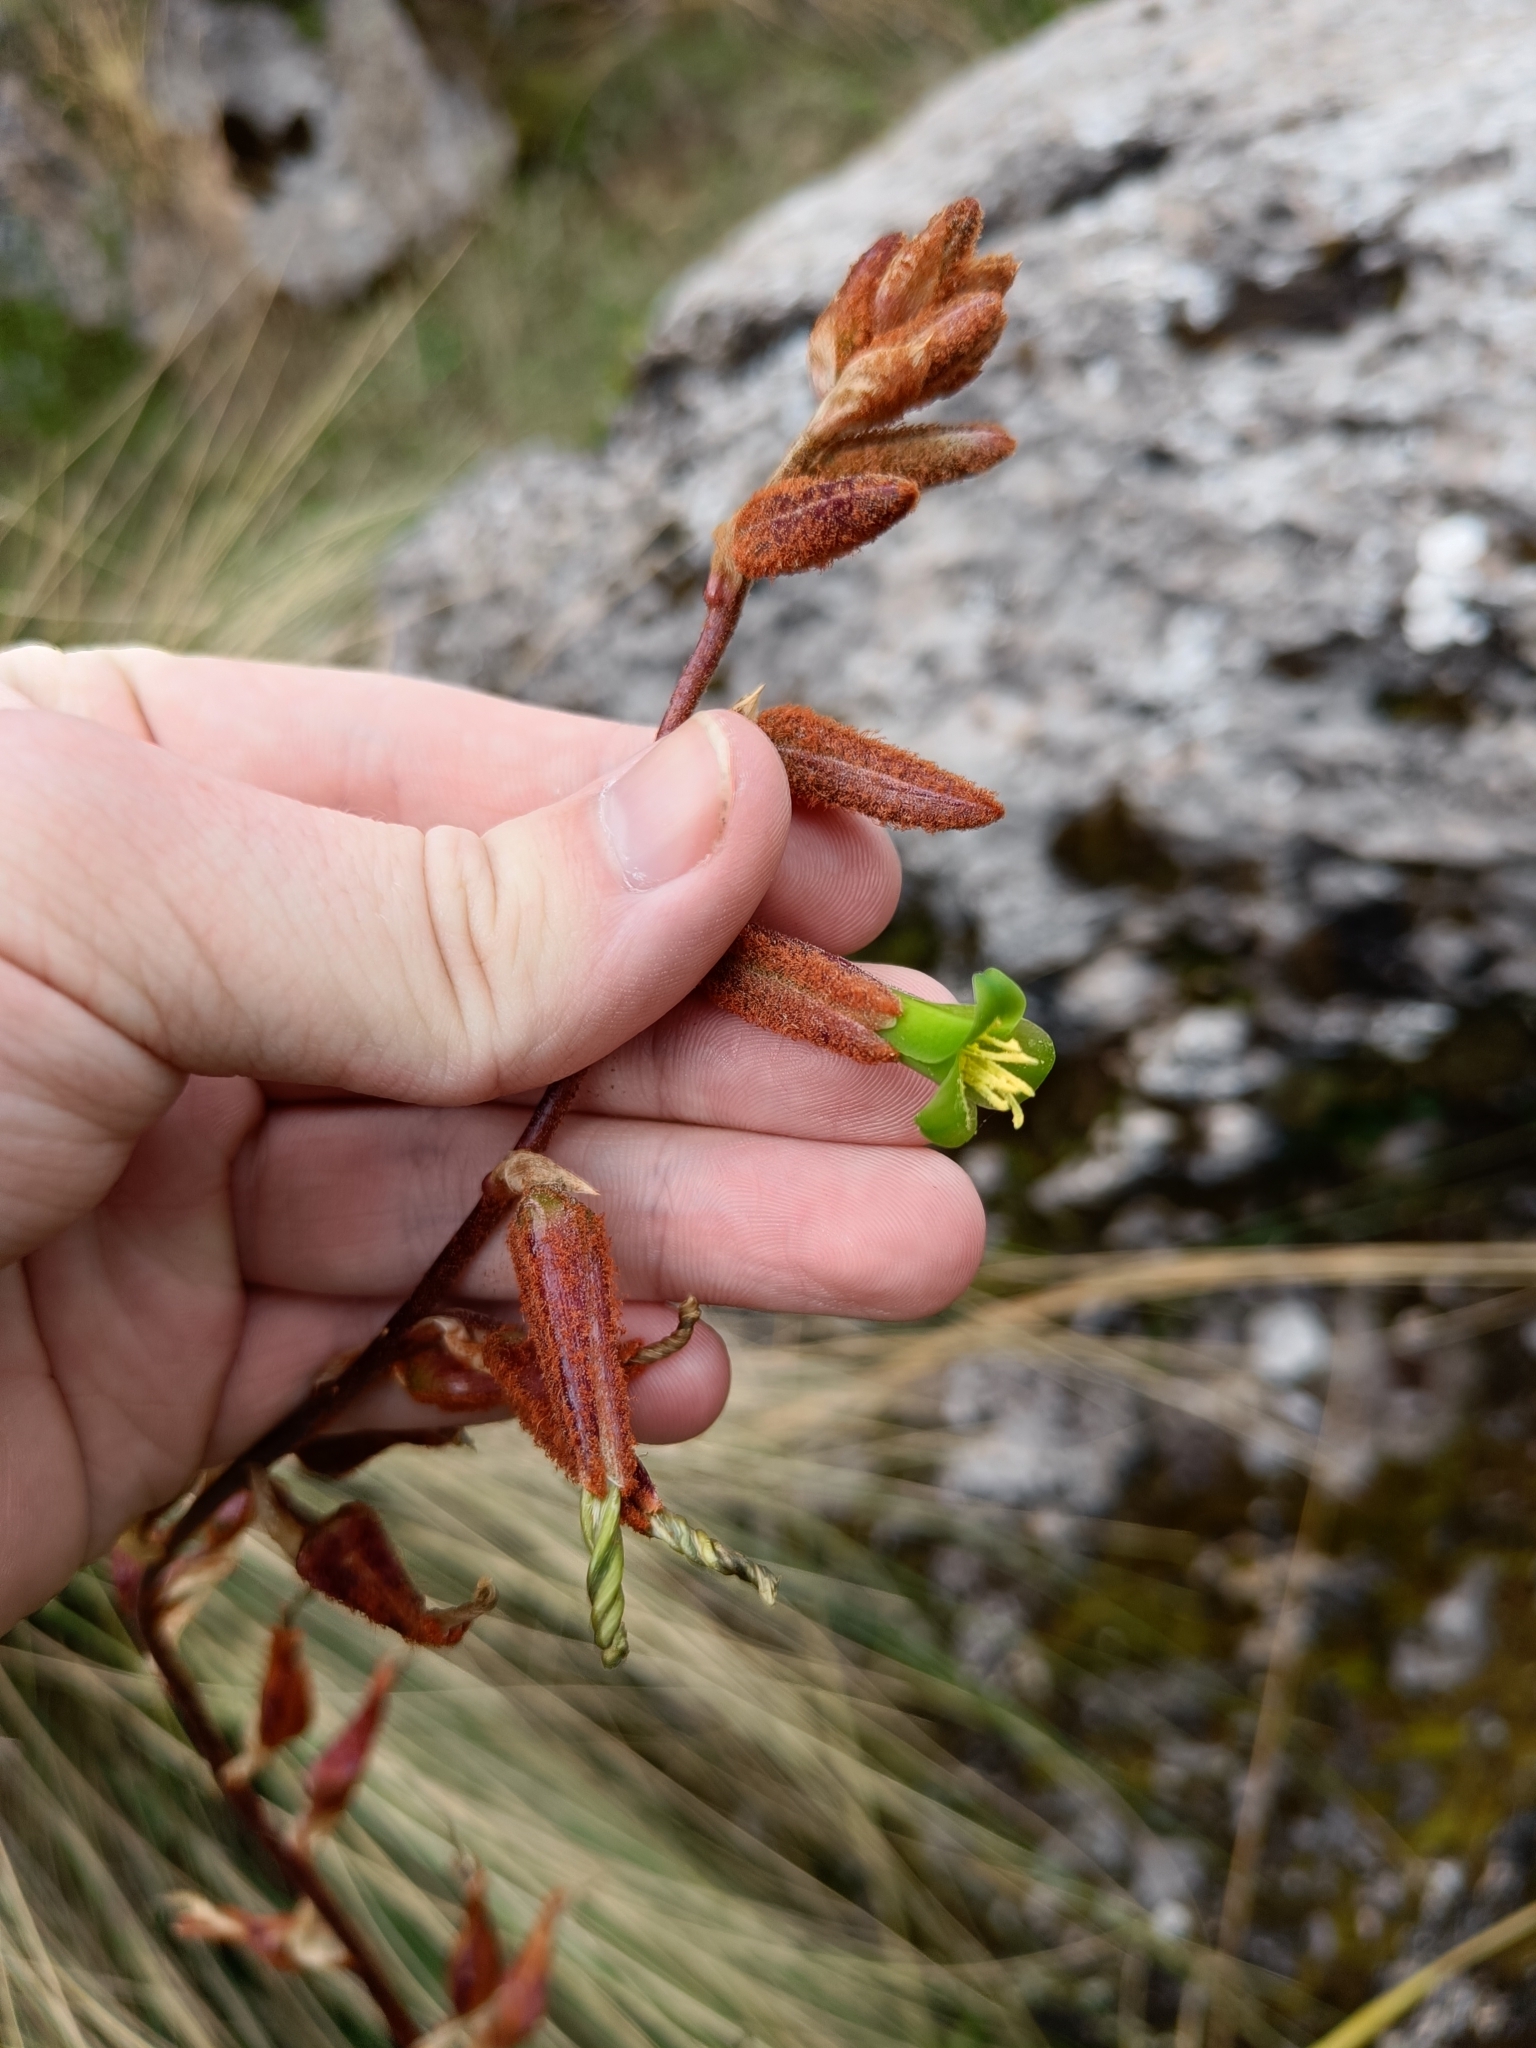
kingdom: Plantae
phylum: Tracheophyta
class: Liliopsida
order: Poales
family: Bromeliaceae
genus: Puya
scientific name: Puya ferruginea
